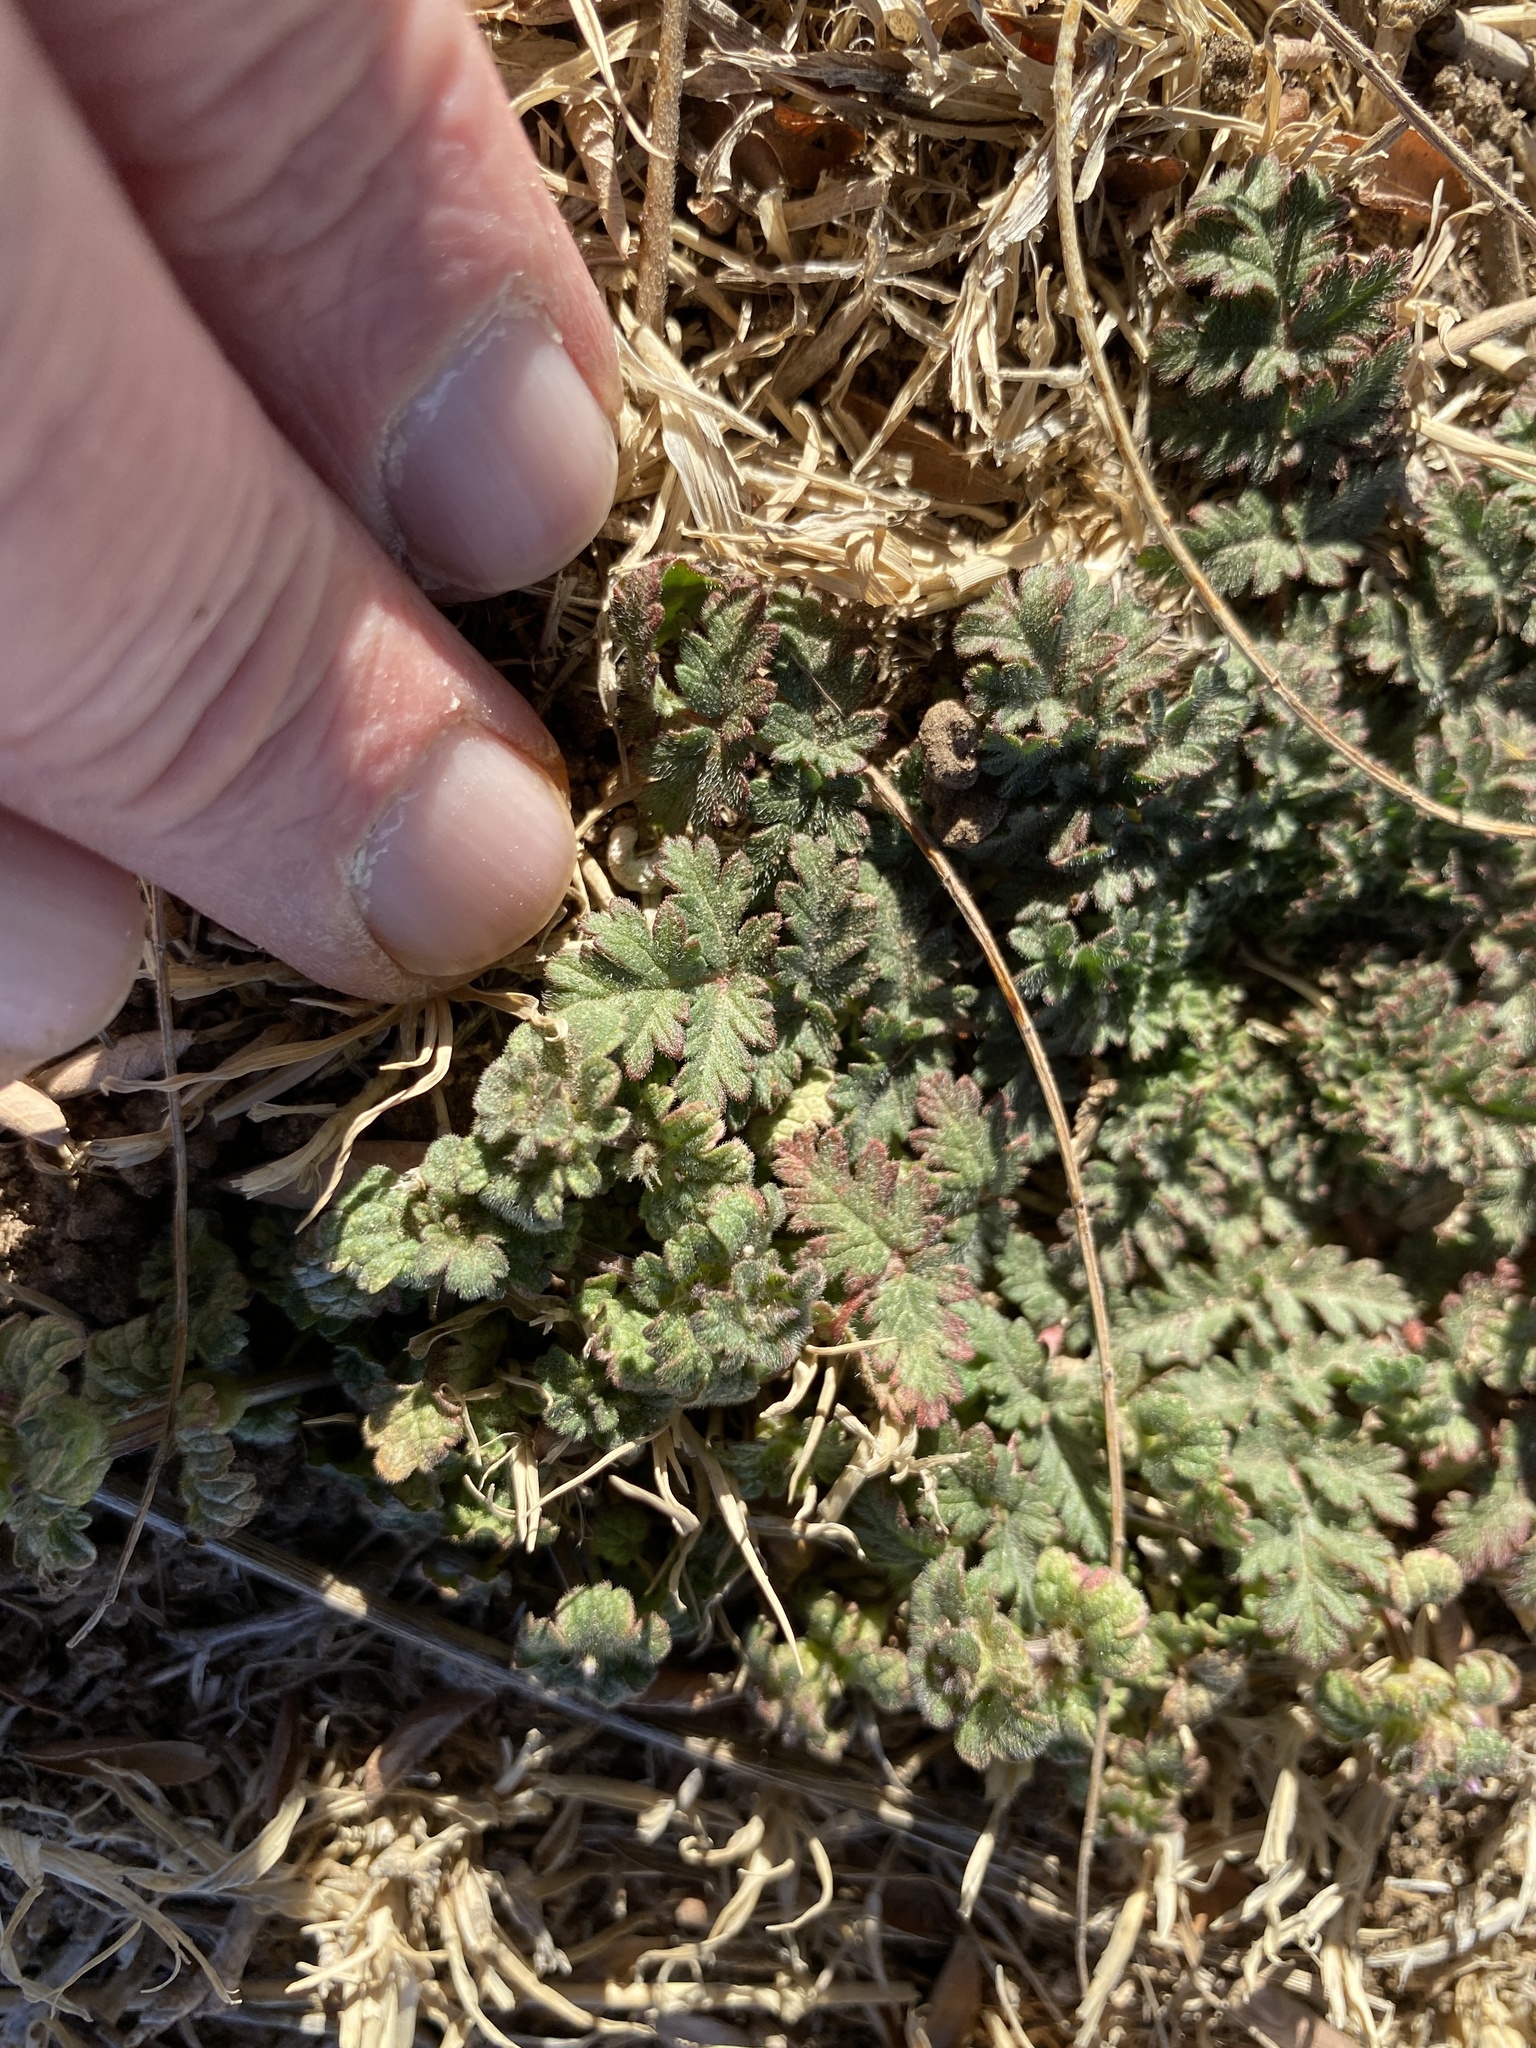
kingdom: Plantae
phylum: Tracheophyta
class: Magnoliopsida
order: Geraniales
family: Geraniaceae
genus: Erodium
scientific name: Erodium cicutarium
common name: Common stork's-bill
